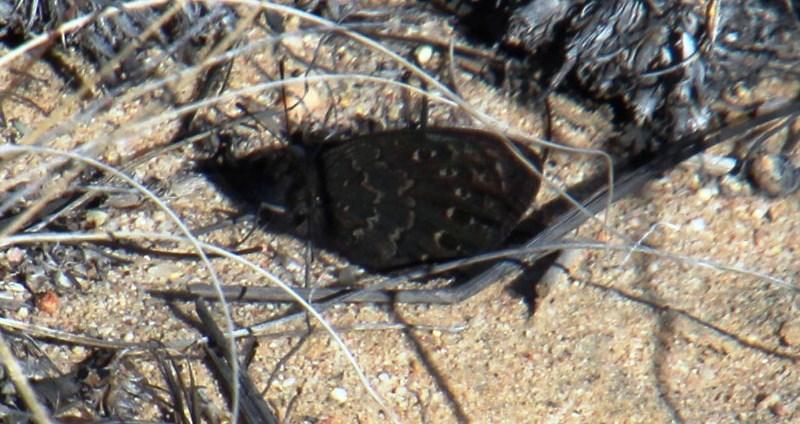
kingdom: Animalia
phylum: Arthropoda
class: Insecta
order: Lepidoptera
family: Nymphalidae
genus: Tarsocera
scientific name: Tarsocera cassus
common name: Spring widow
